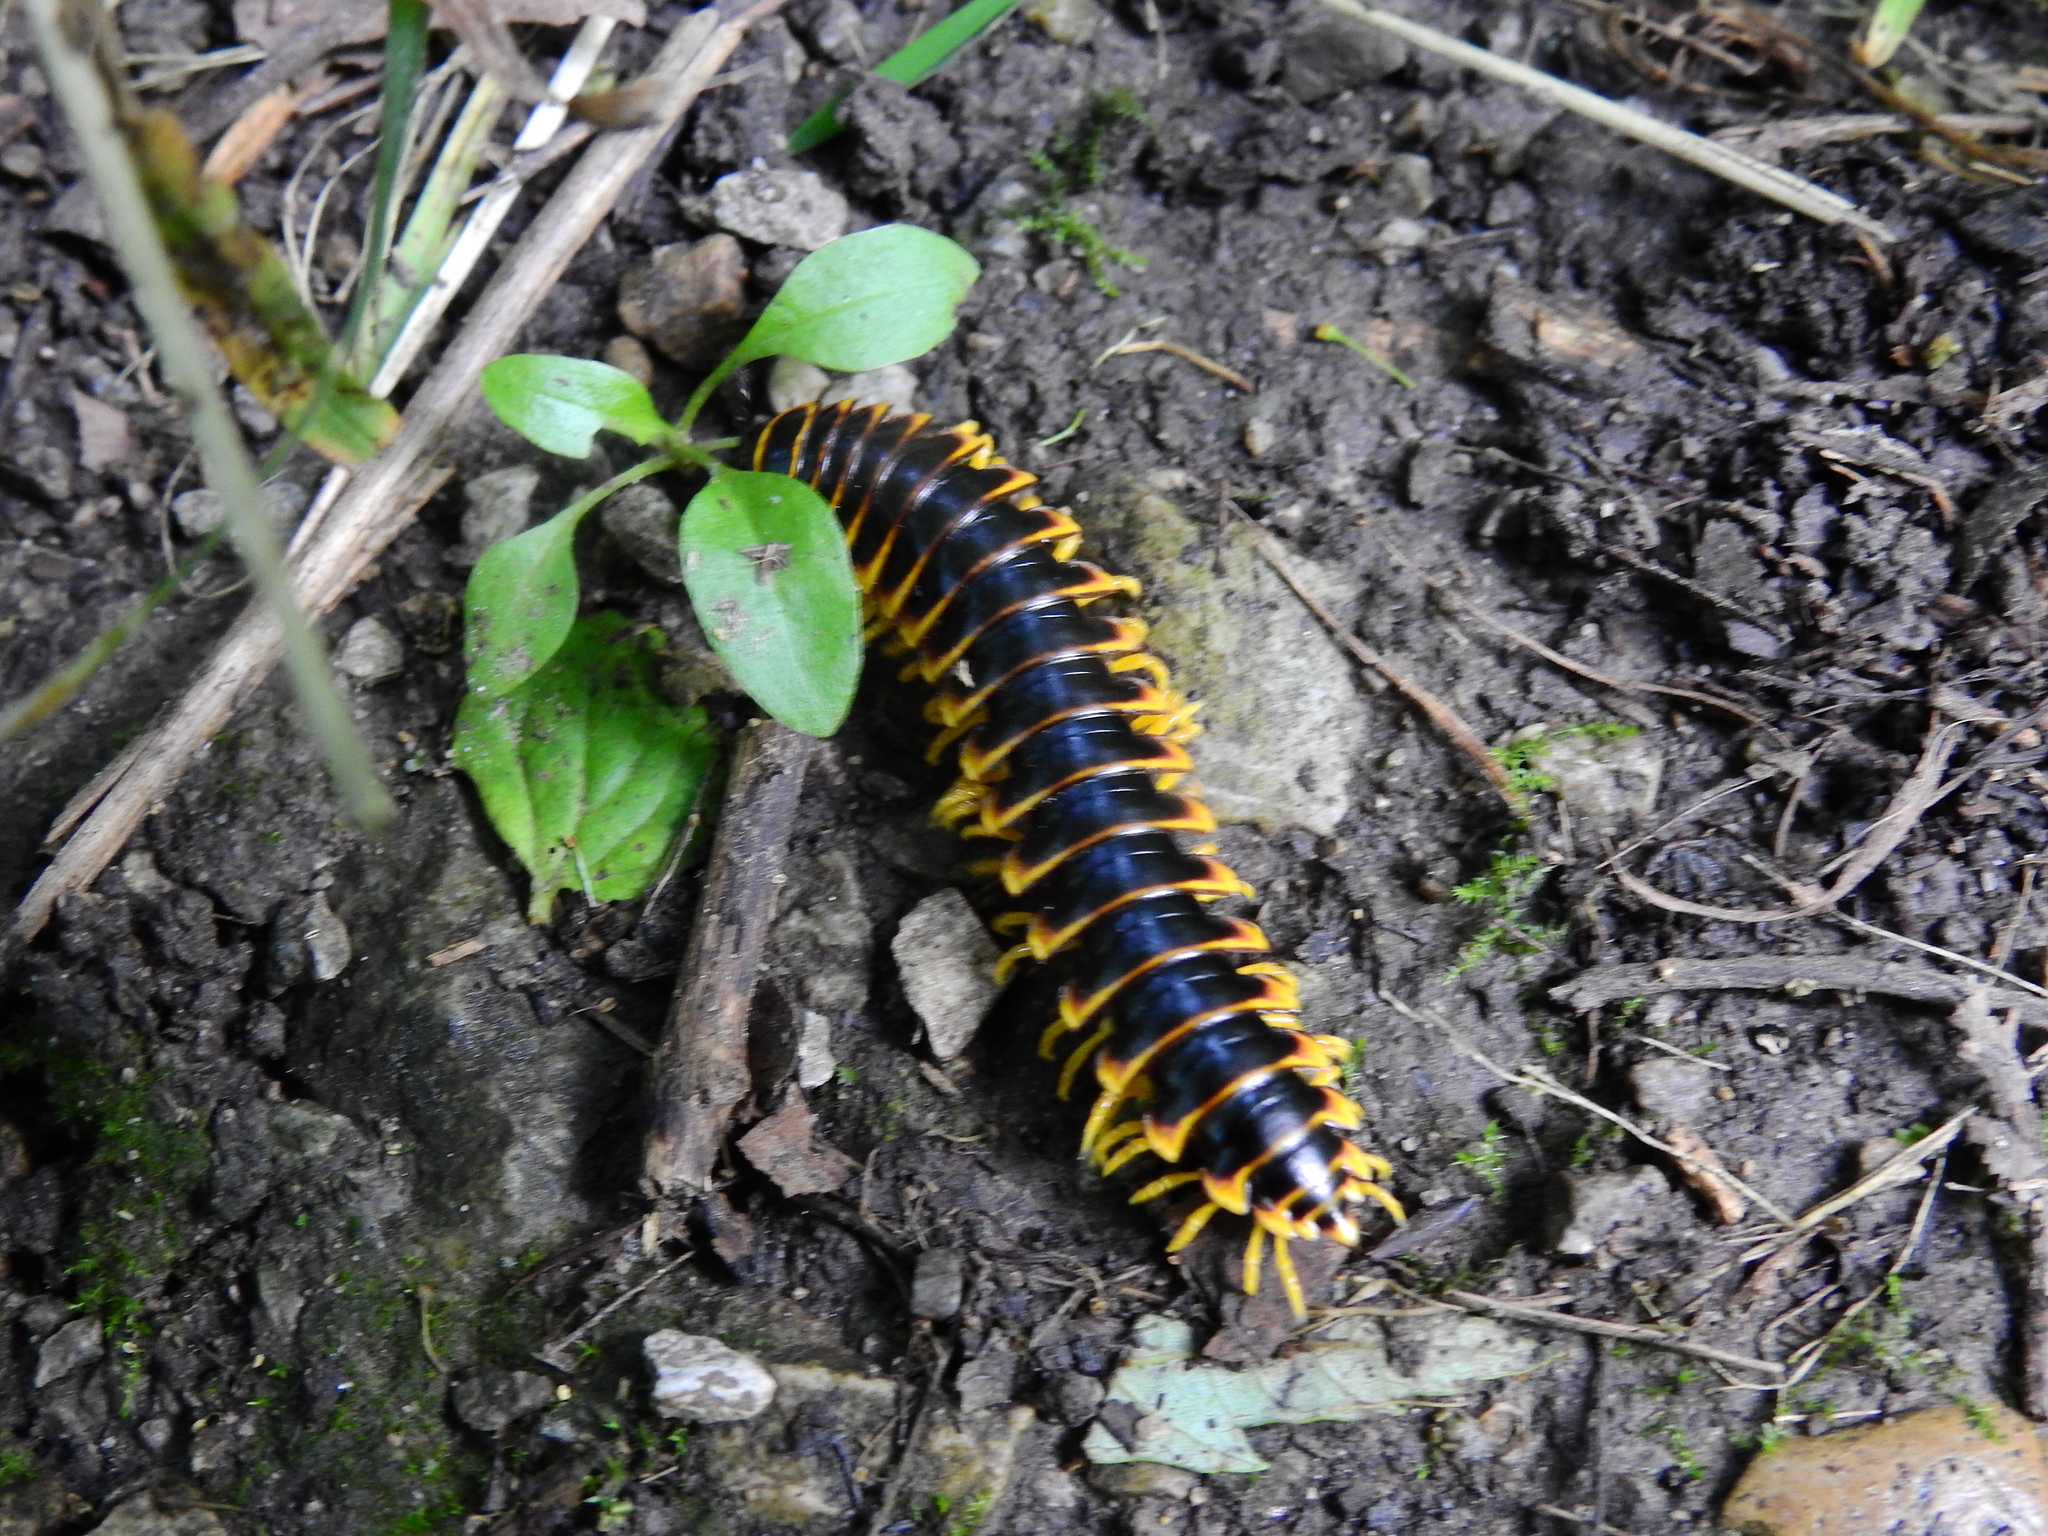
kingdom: Animalia
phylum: Arthropoda
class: Diplopoda
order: Polydesmida
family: Xystodesmidae
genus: Apheloria
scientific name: Apheloria virginiensis
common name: Black-and-gold flat millipede
